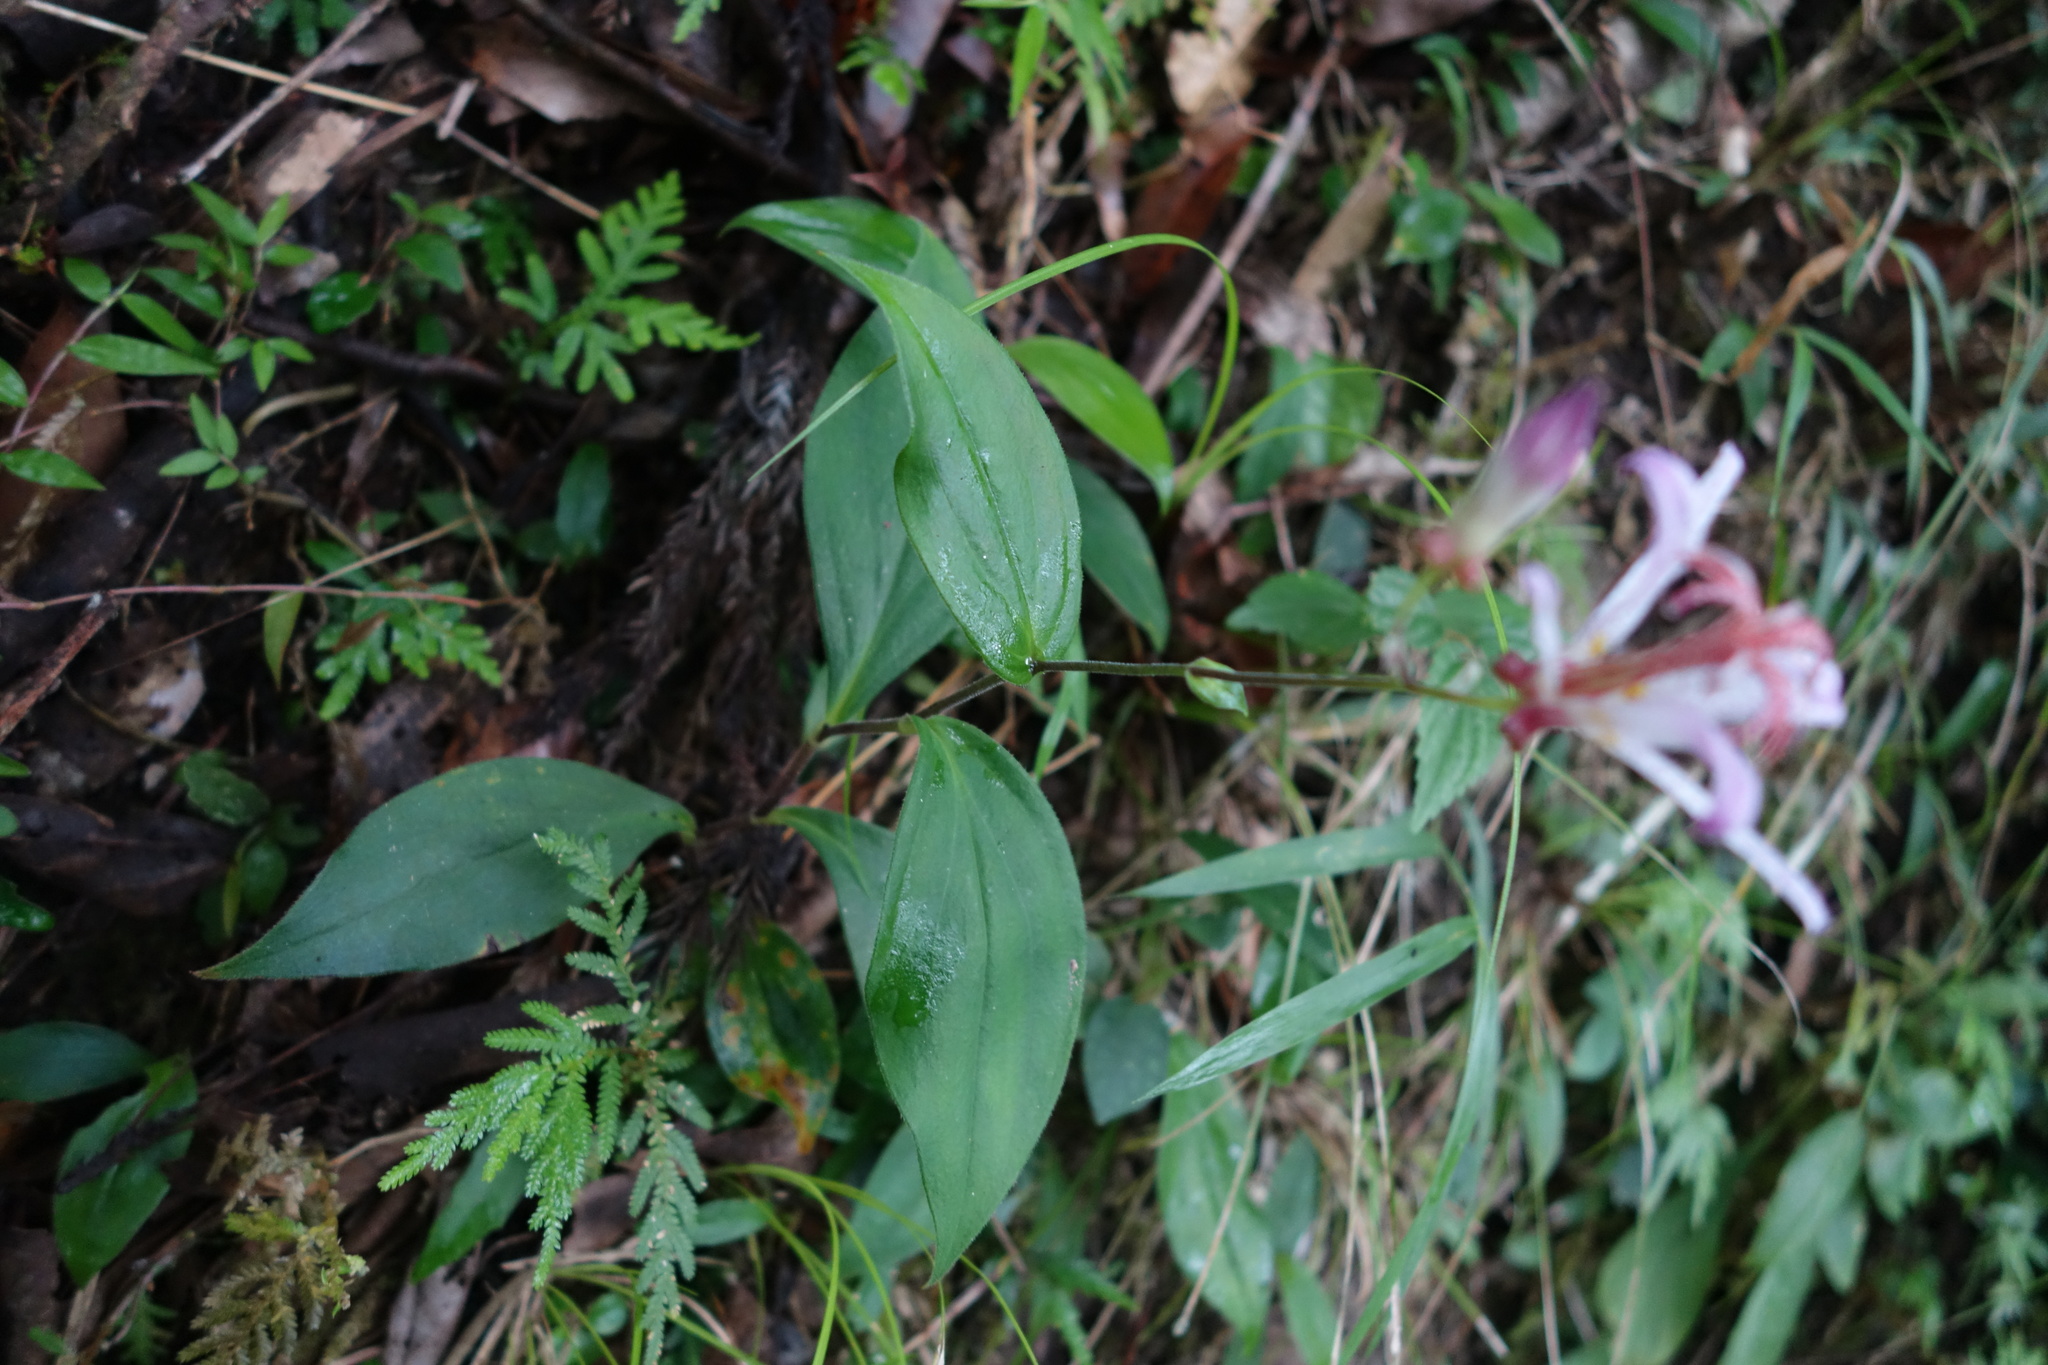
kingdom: Plantae
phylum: Tracheophyta
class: Liliopsida
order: Liliales
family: Liliaceae
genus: Tricyrtis
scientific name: Tricyrtis formosana
